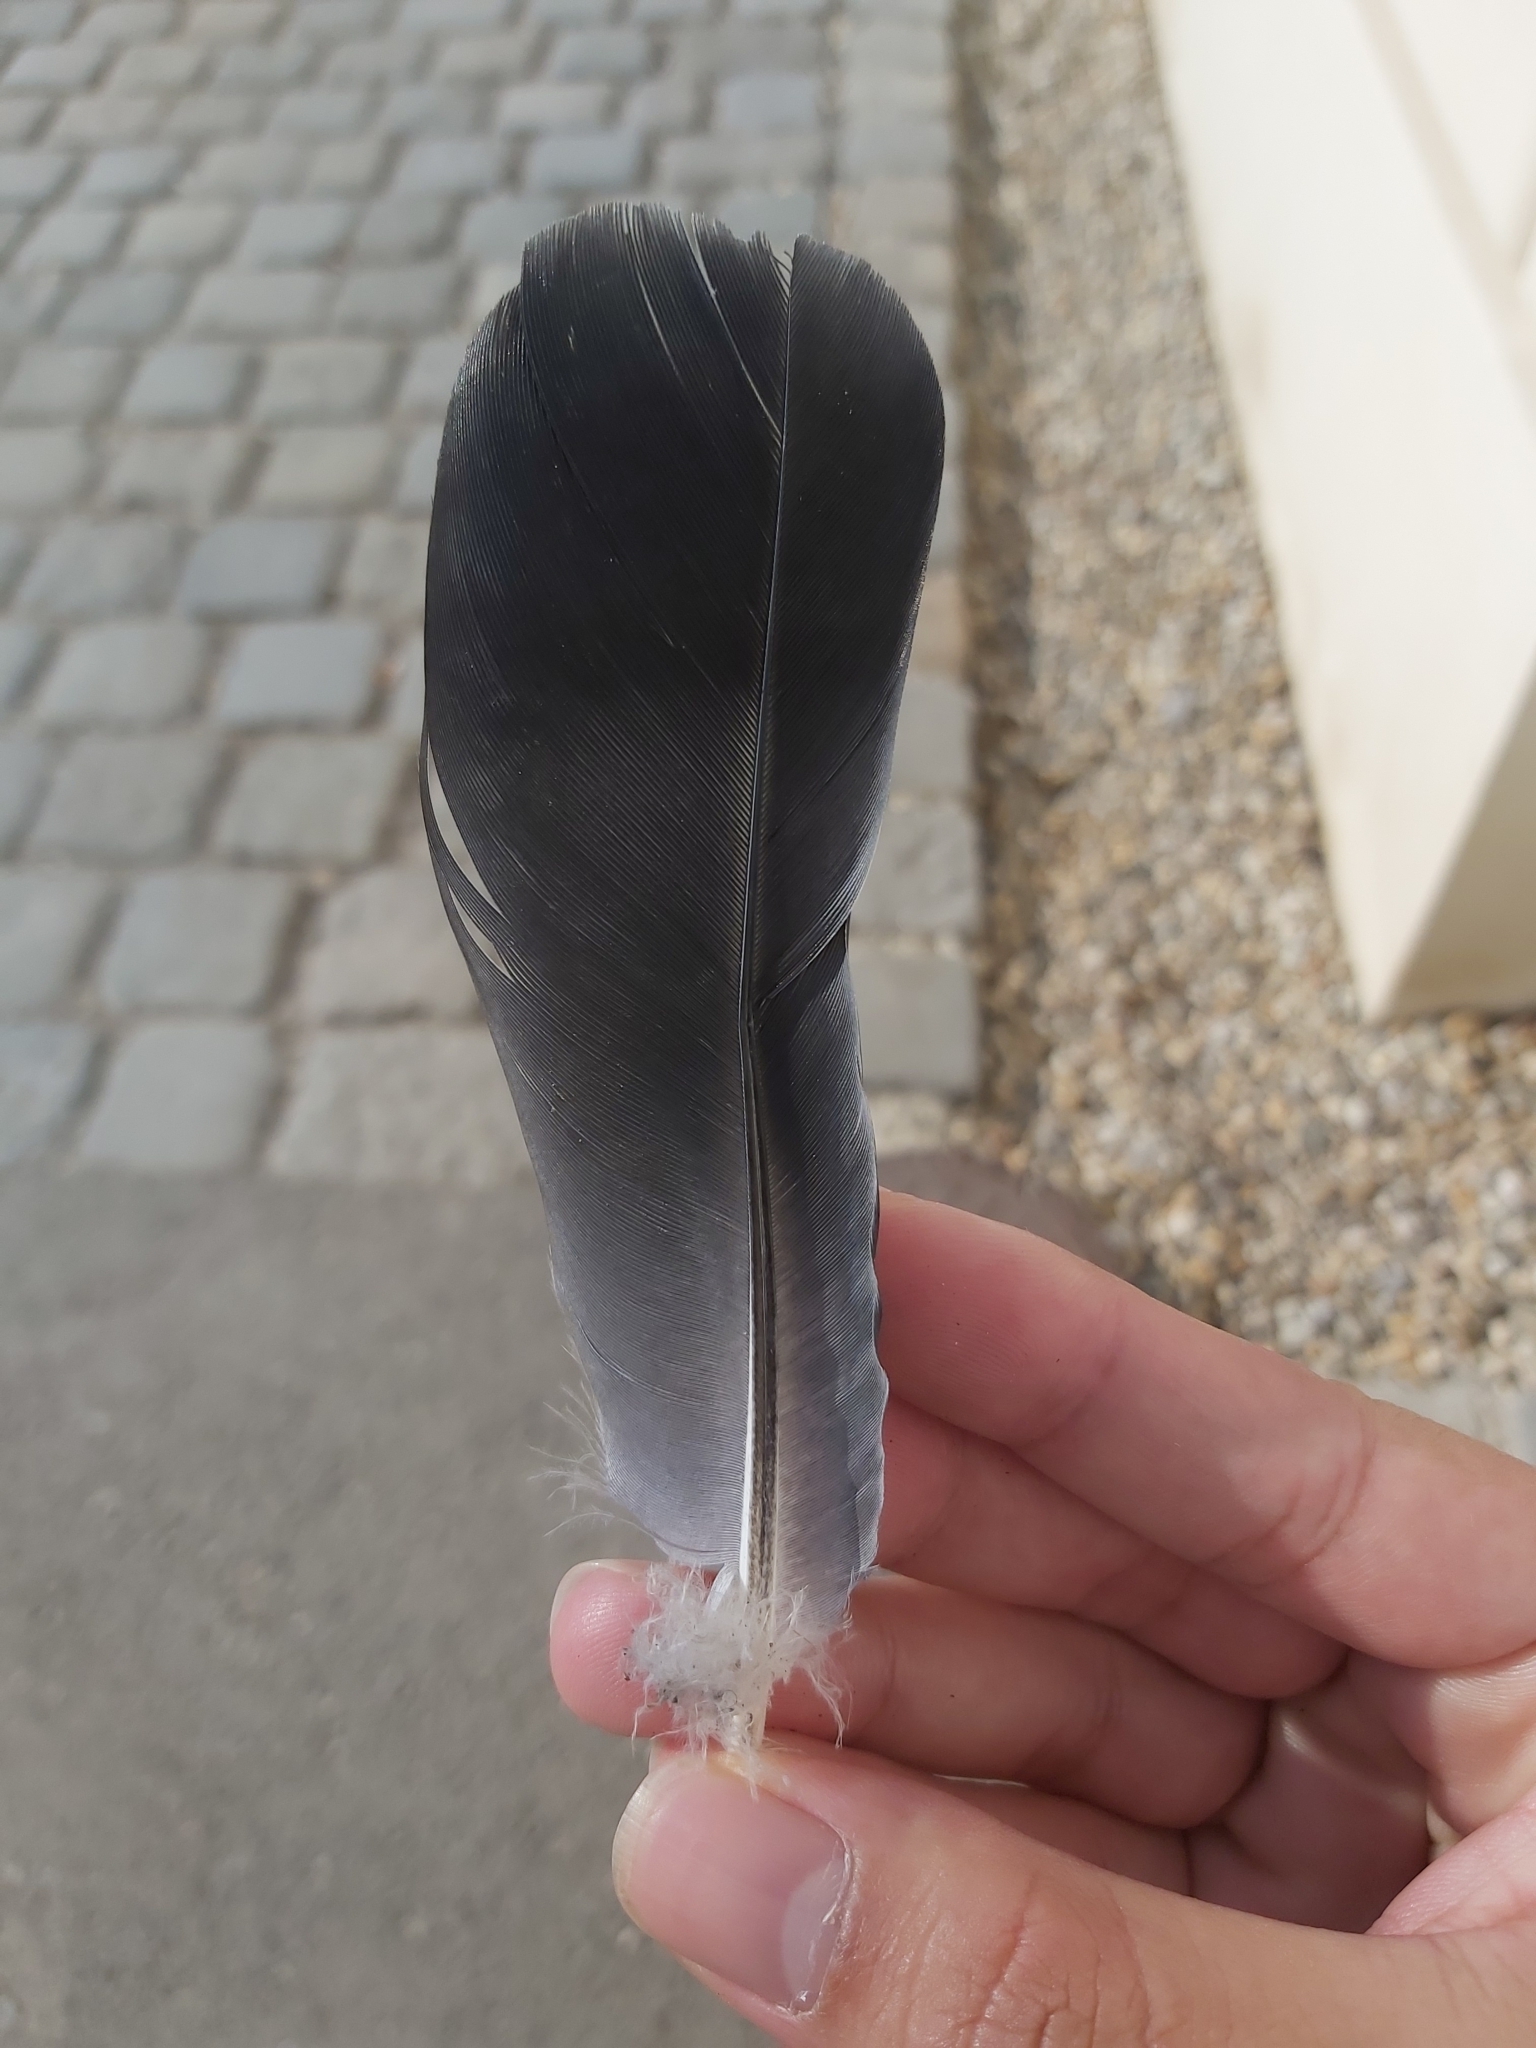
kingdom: Animalia
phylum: Chordata
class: Aves
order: Columbiformes
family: Columbidae
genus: Columba
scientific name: Columba livia
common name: Rock pigeon
